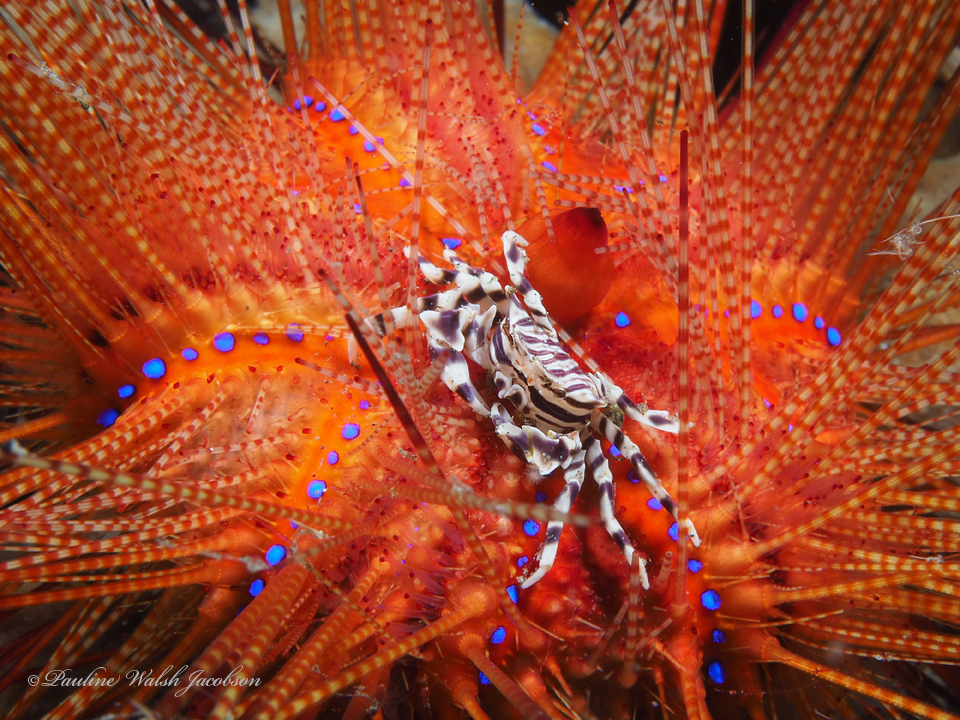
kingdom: Animalia
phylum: Arthropoda
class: Malacostraca
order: Decapoda
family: Pilumnidae
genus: Zebrida
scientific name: Zebrida adamsii
